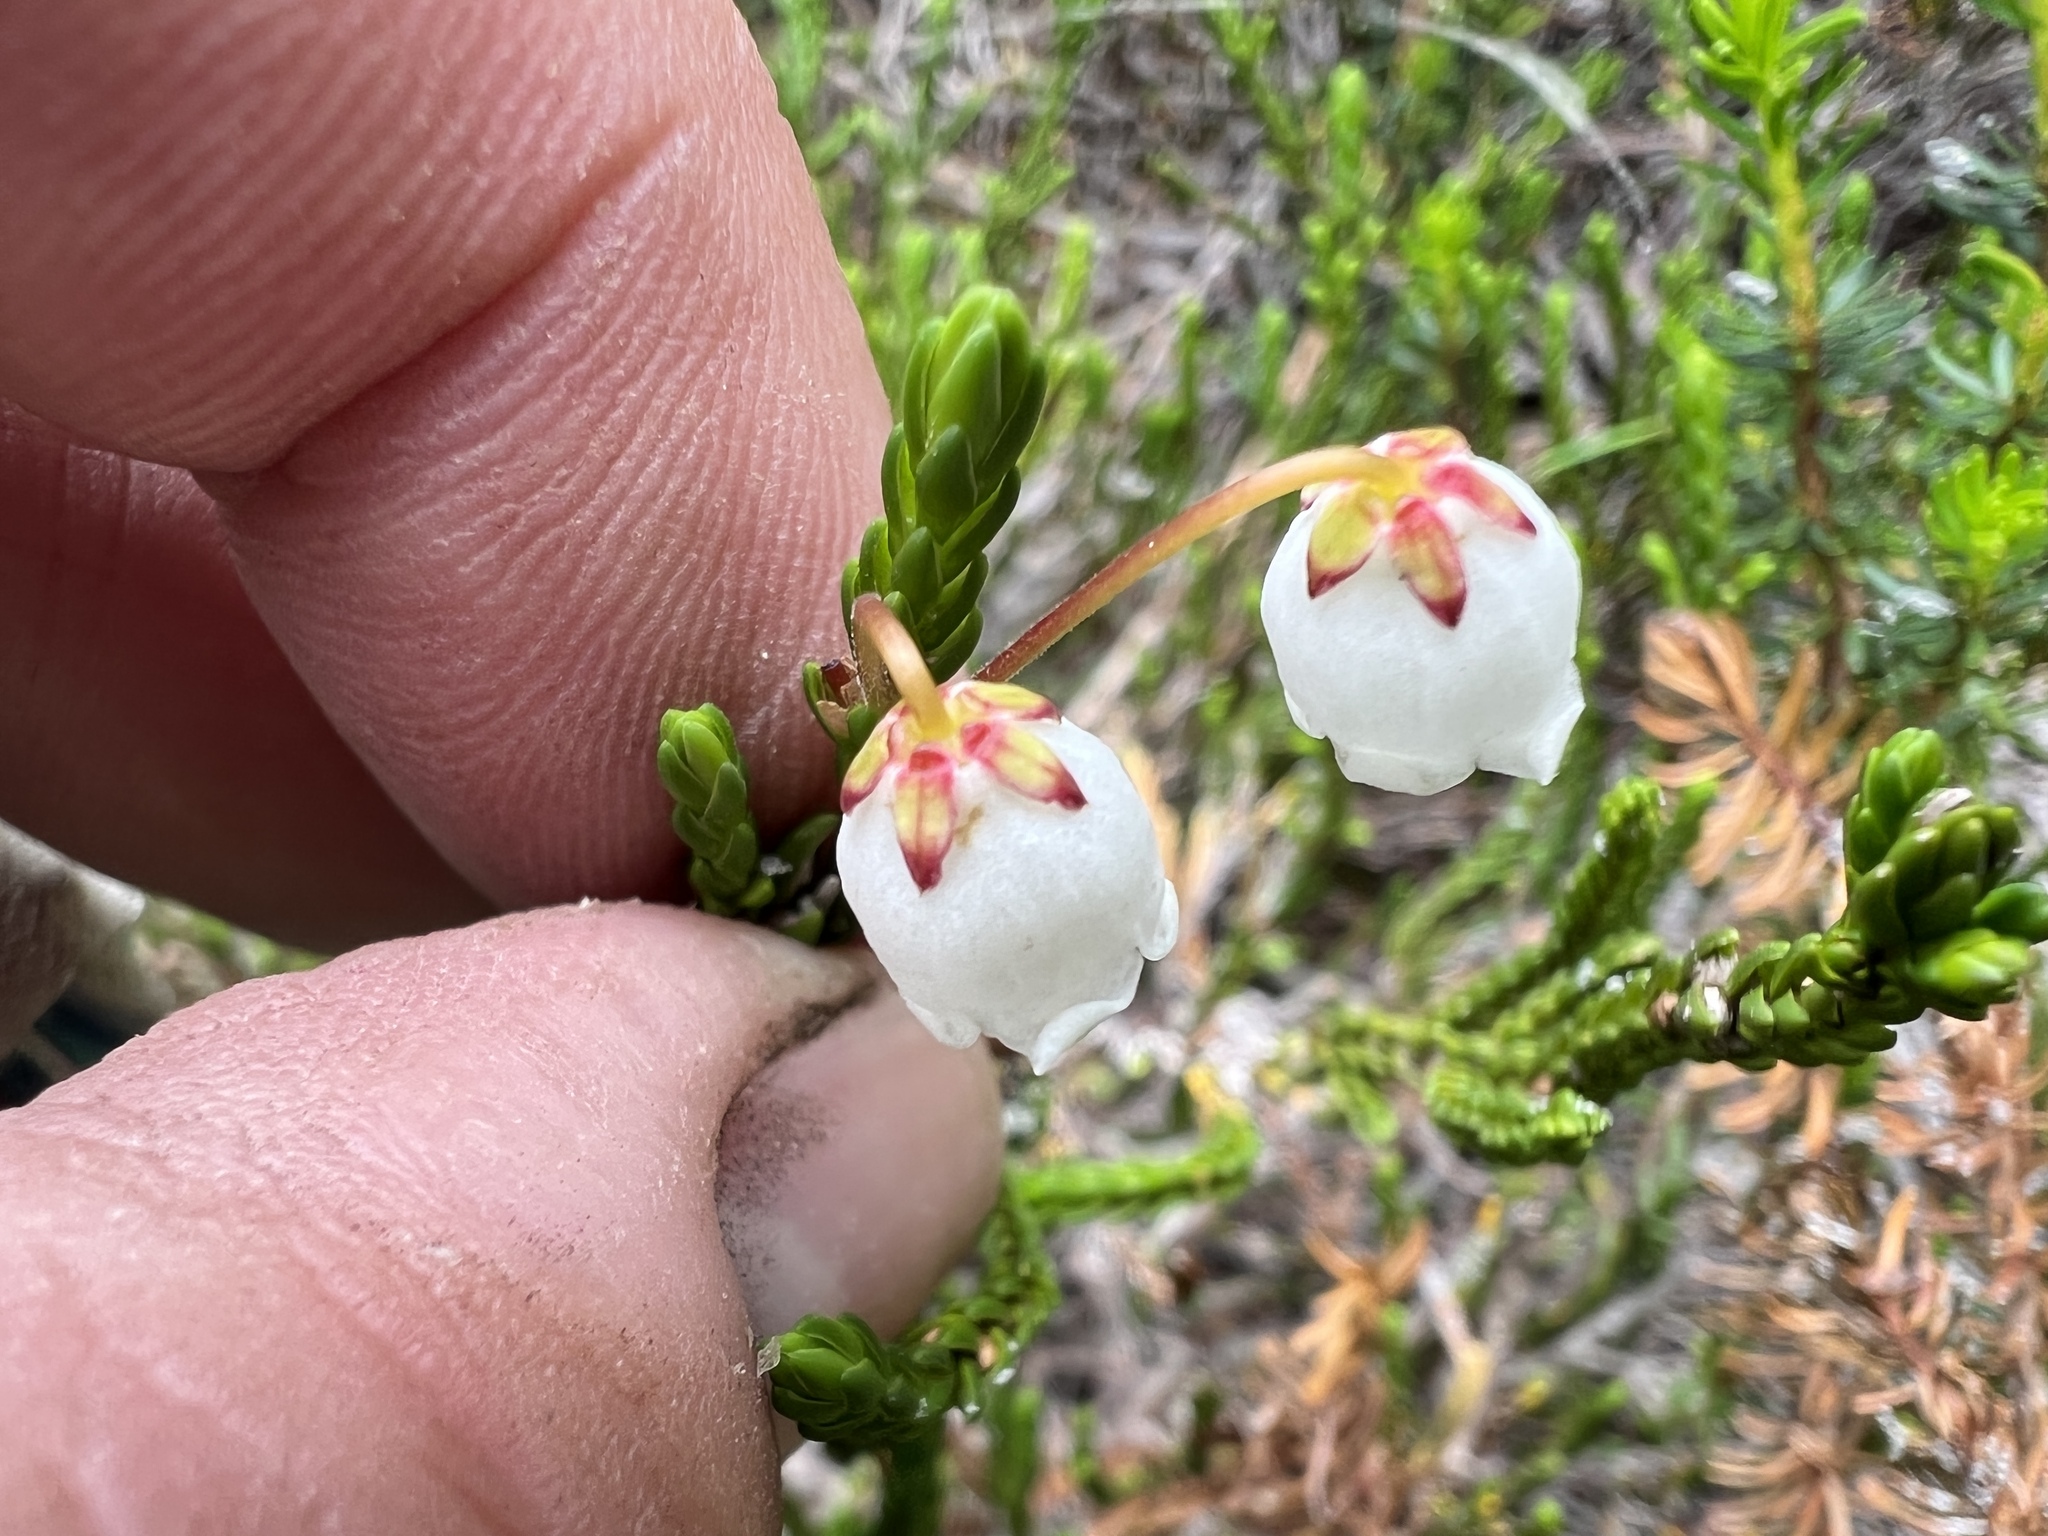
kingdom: Plantae
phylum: Tracheophyta
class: Magnoliopsida
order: Ericales
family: Ericaceae
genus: Cassiope
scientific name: Cassiope mertensiana
